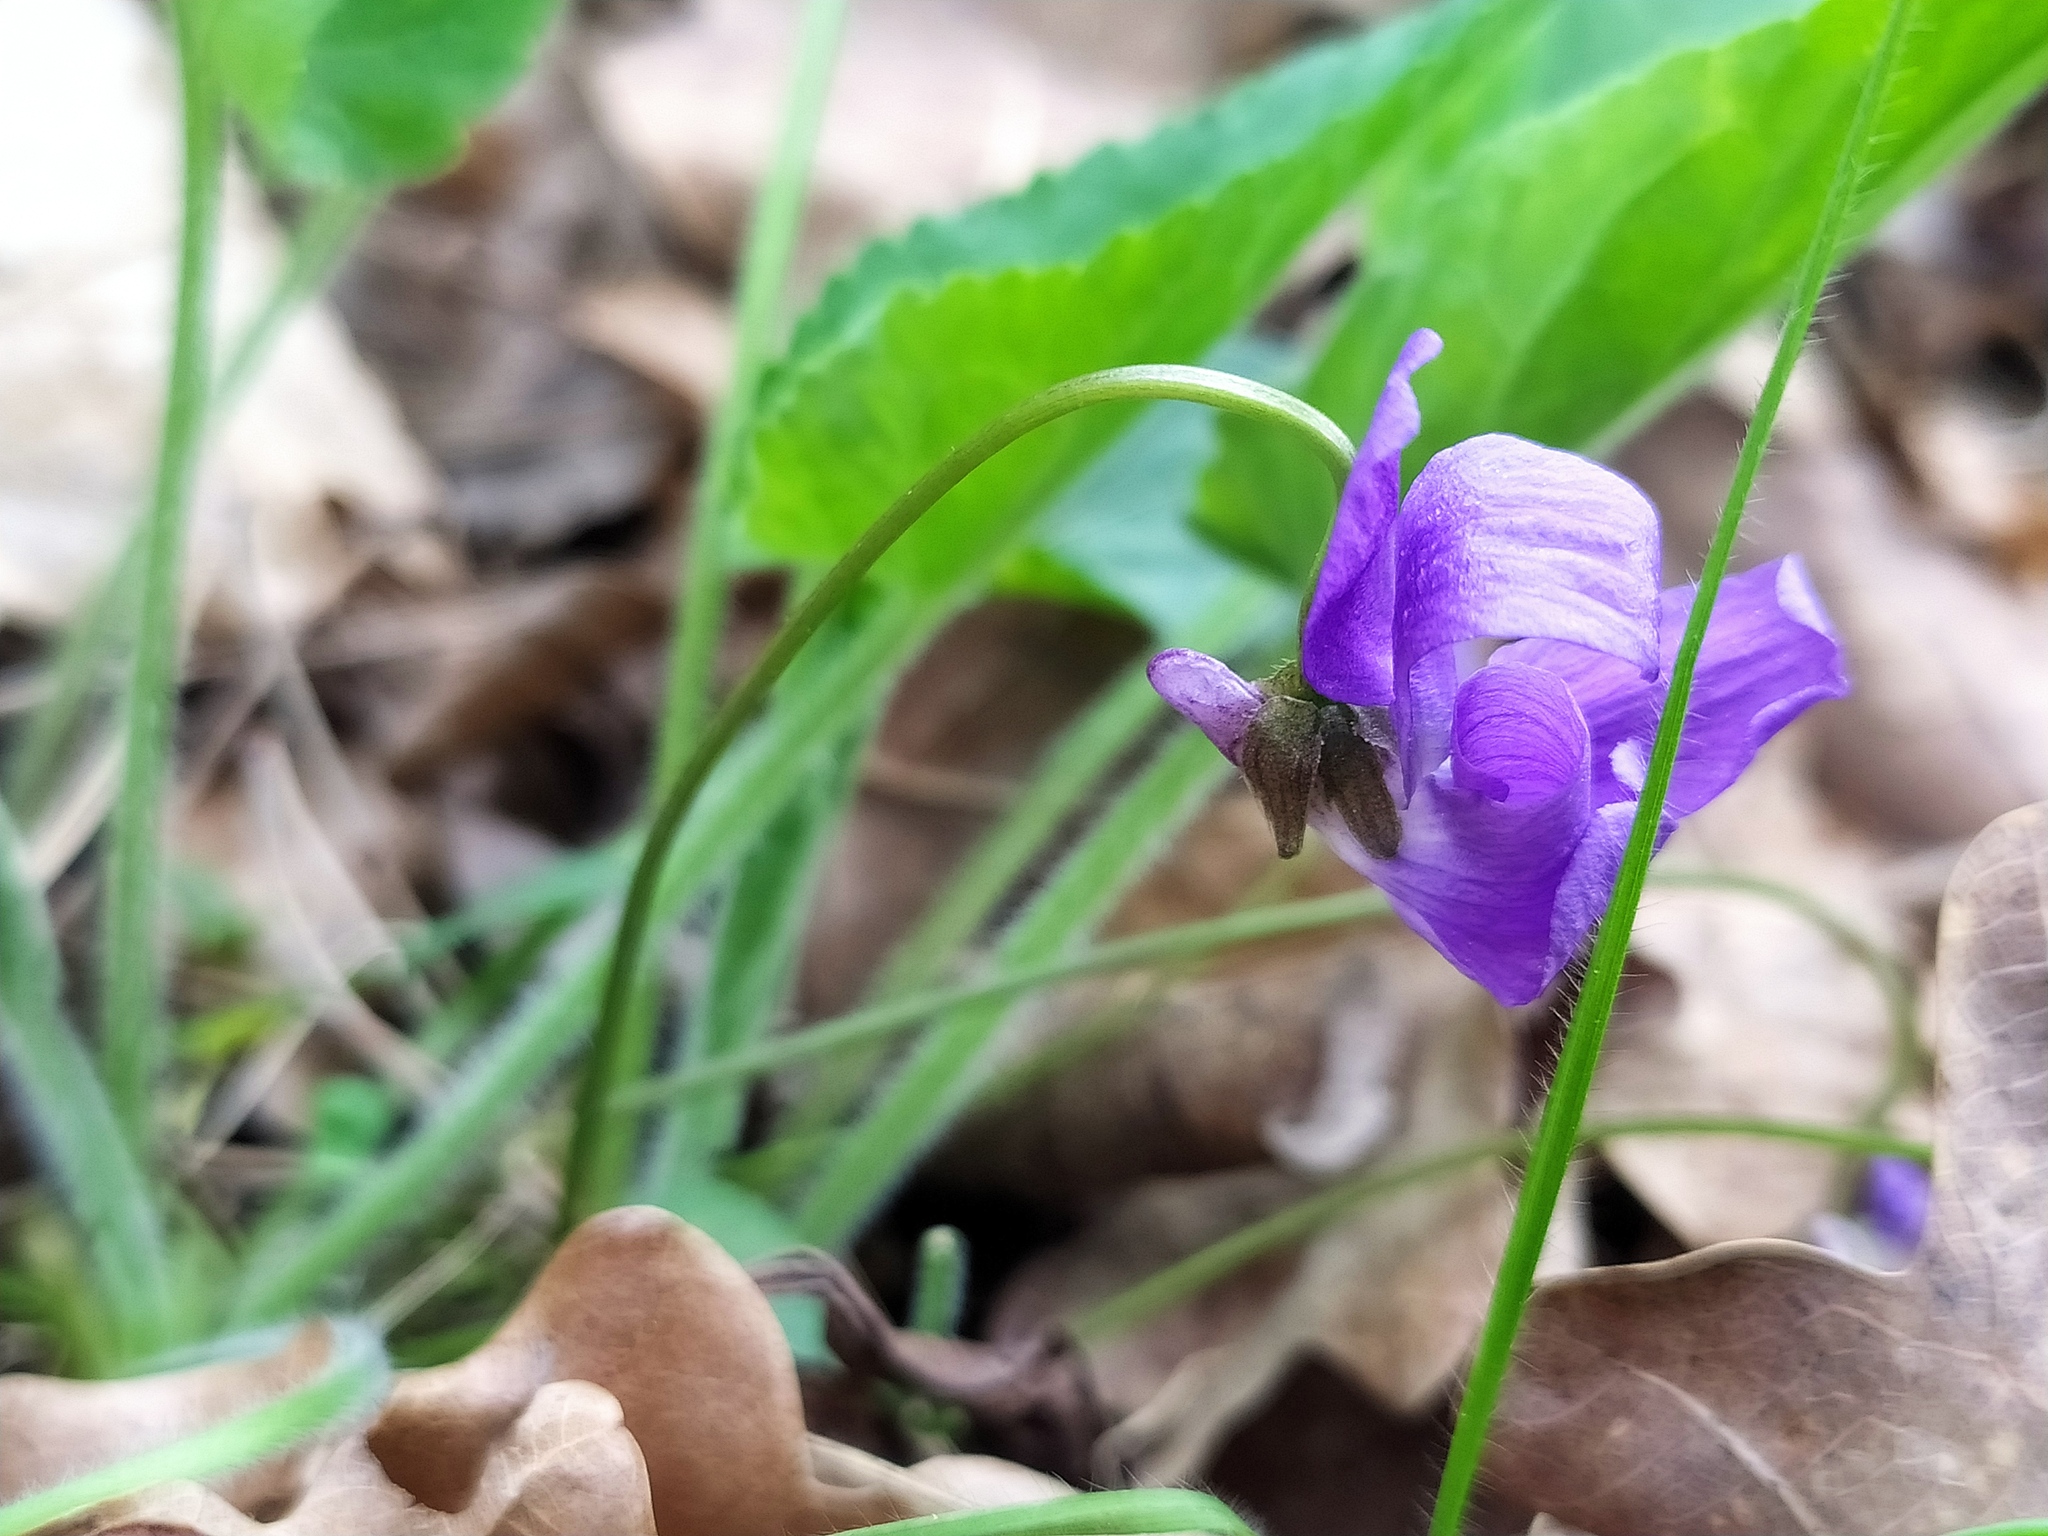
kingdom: Plantae
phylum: Tracheophyta
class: Magnoliopsida
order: Malpighiales
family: Violaceae
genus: Viola
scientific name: Viola hirta
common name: Hairy violet
